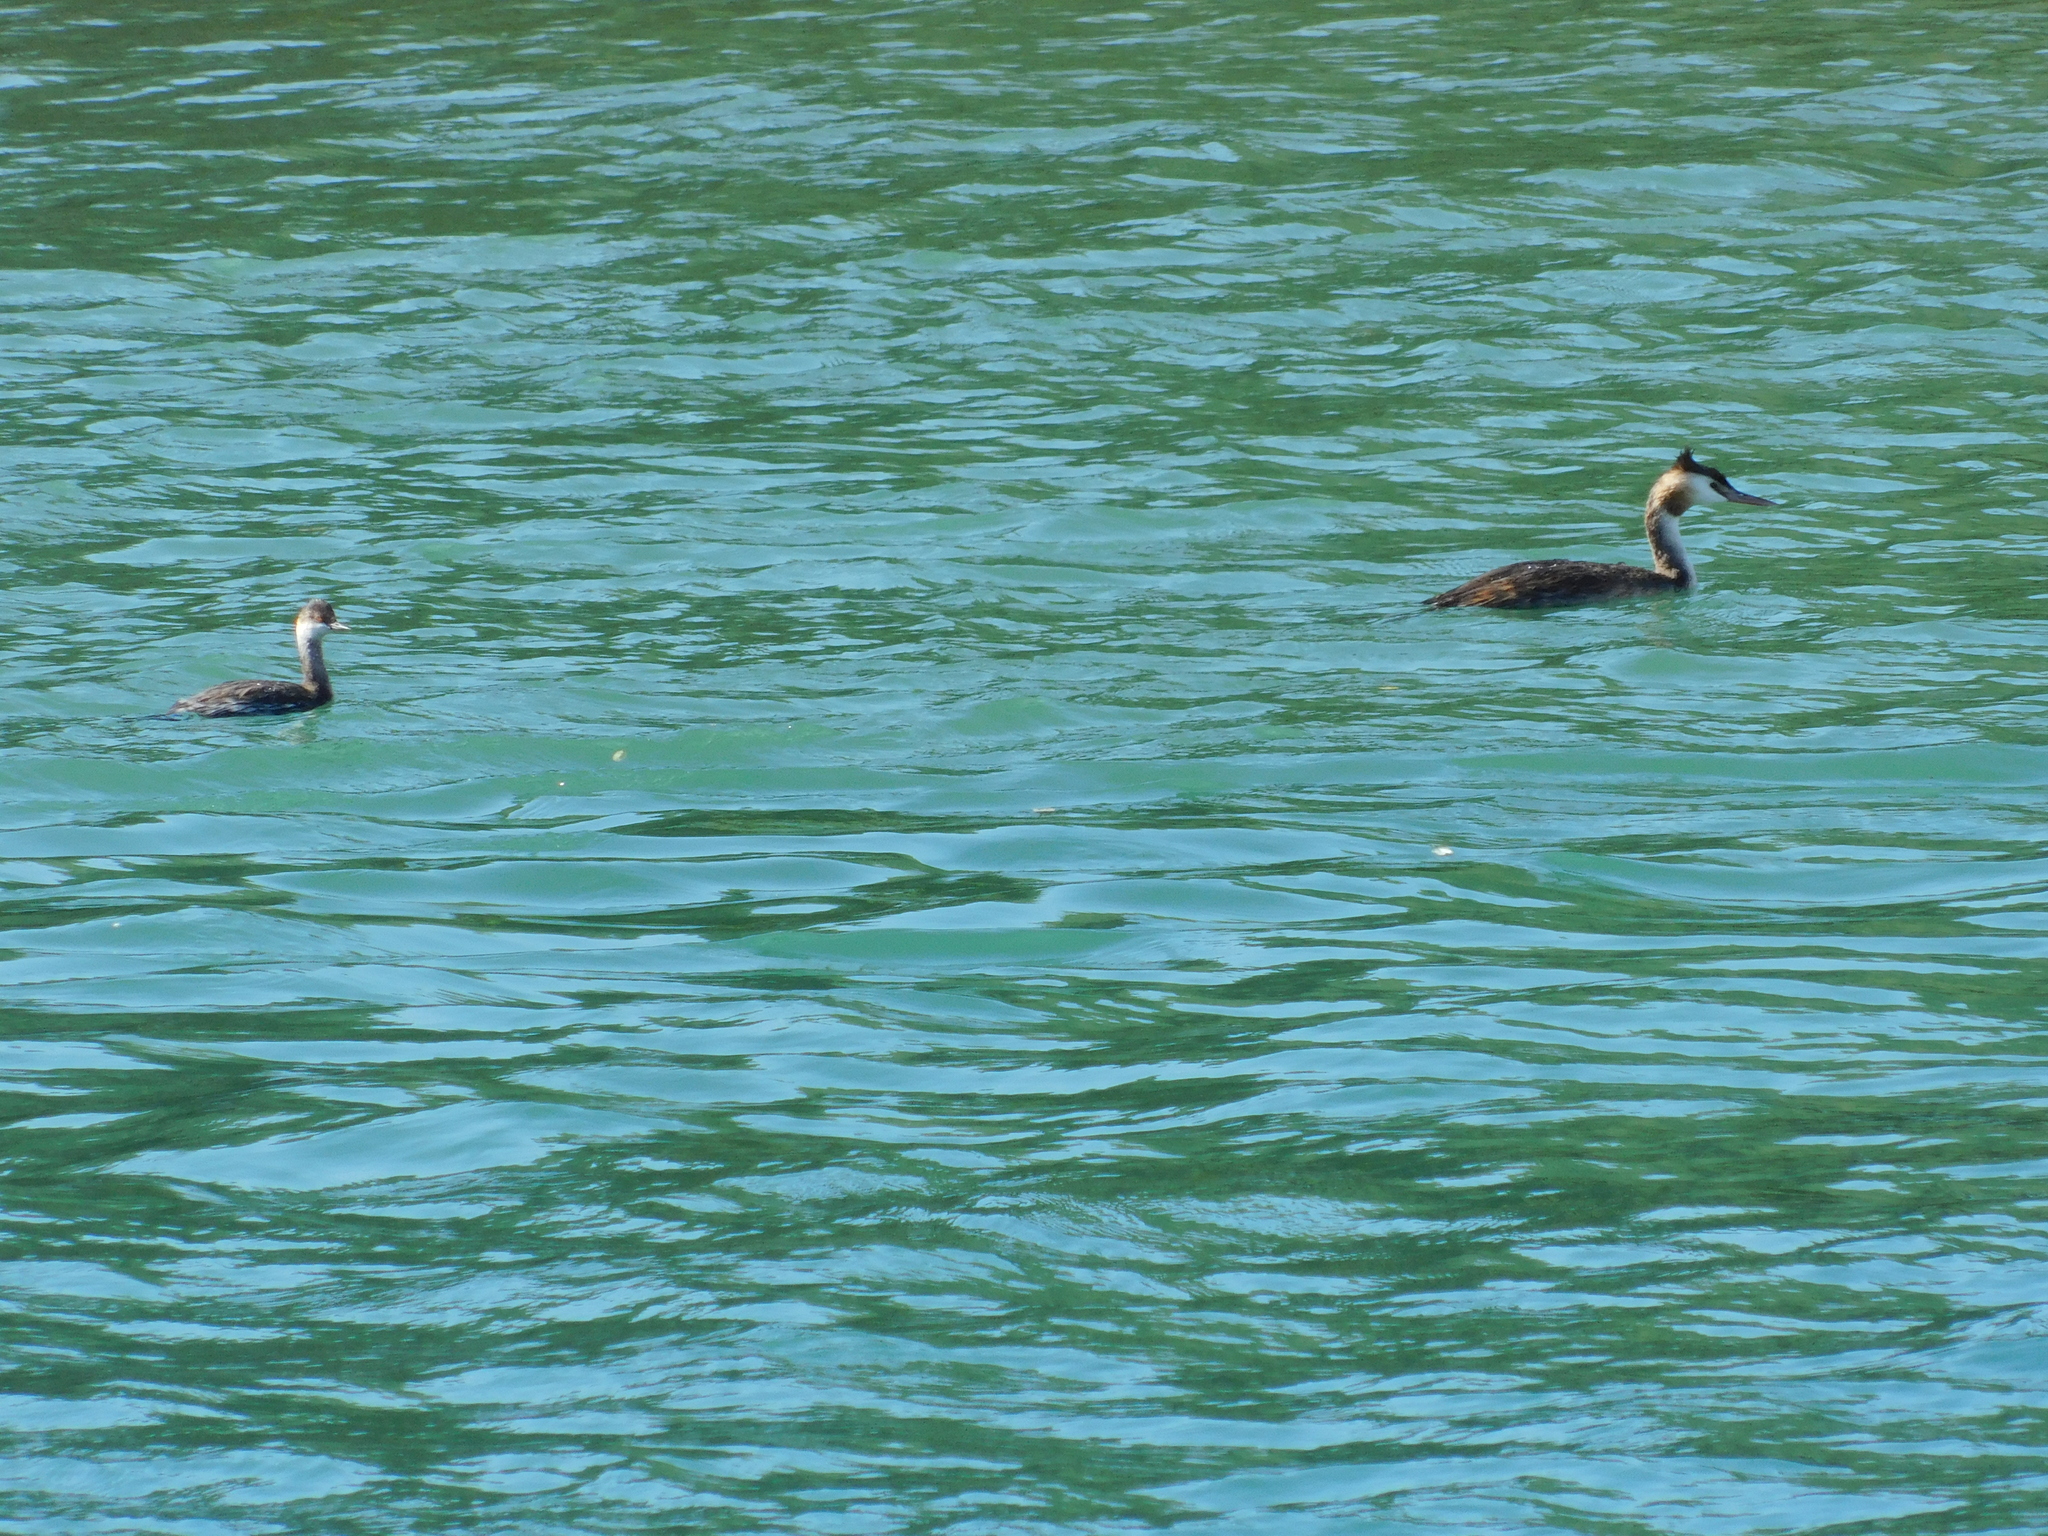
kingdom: Animalia
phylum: Chordata
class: Aves
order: Podicipediformes
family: Podicipedidae
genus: Podiceps
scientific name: Podiceps cristatus
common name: Great crested grebe
